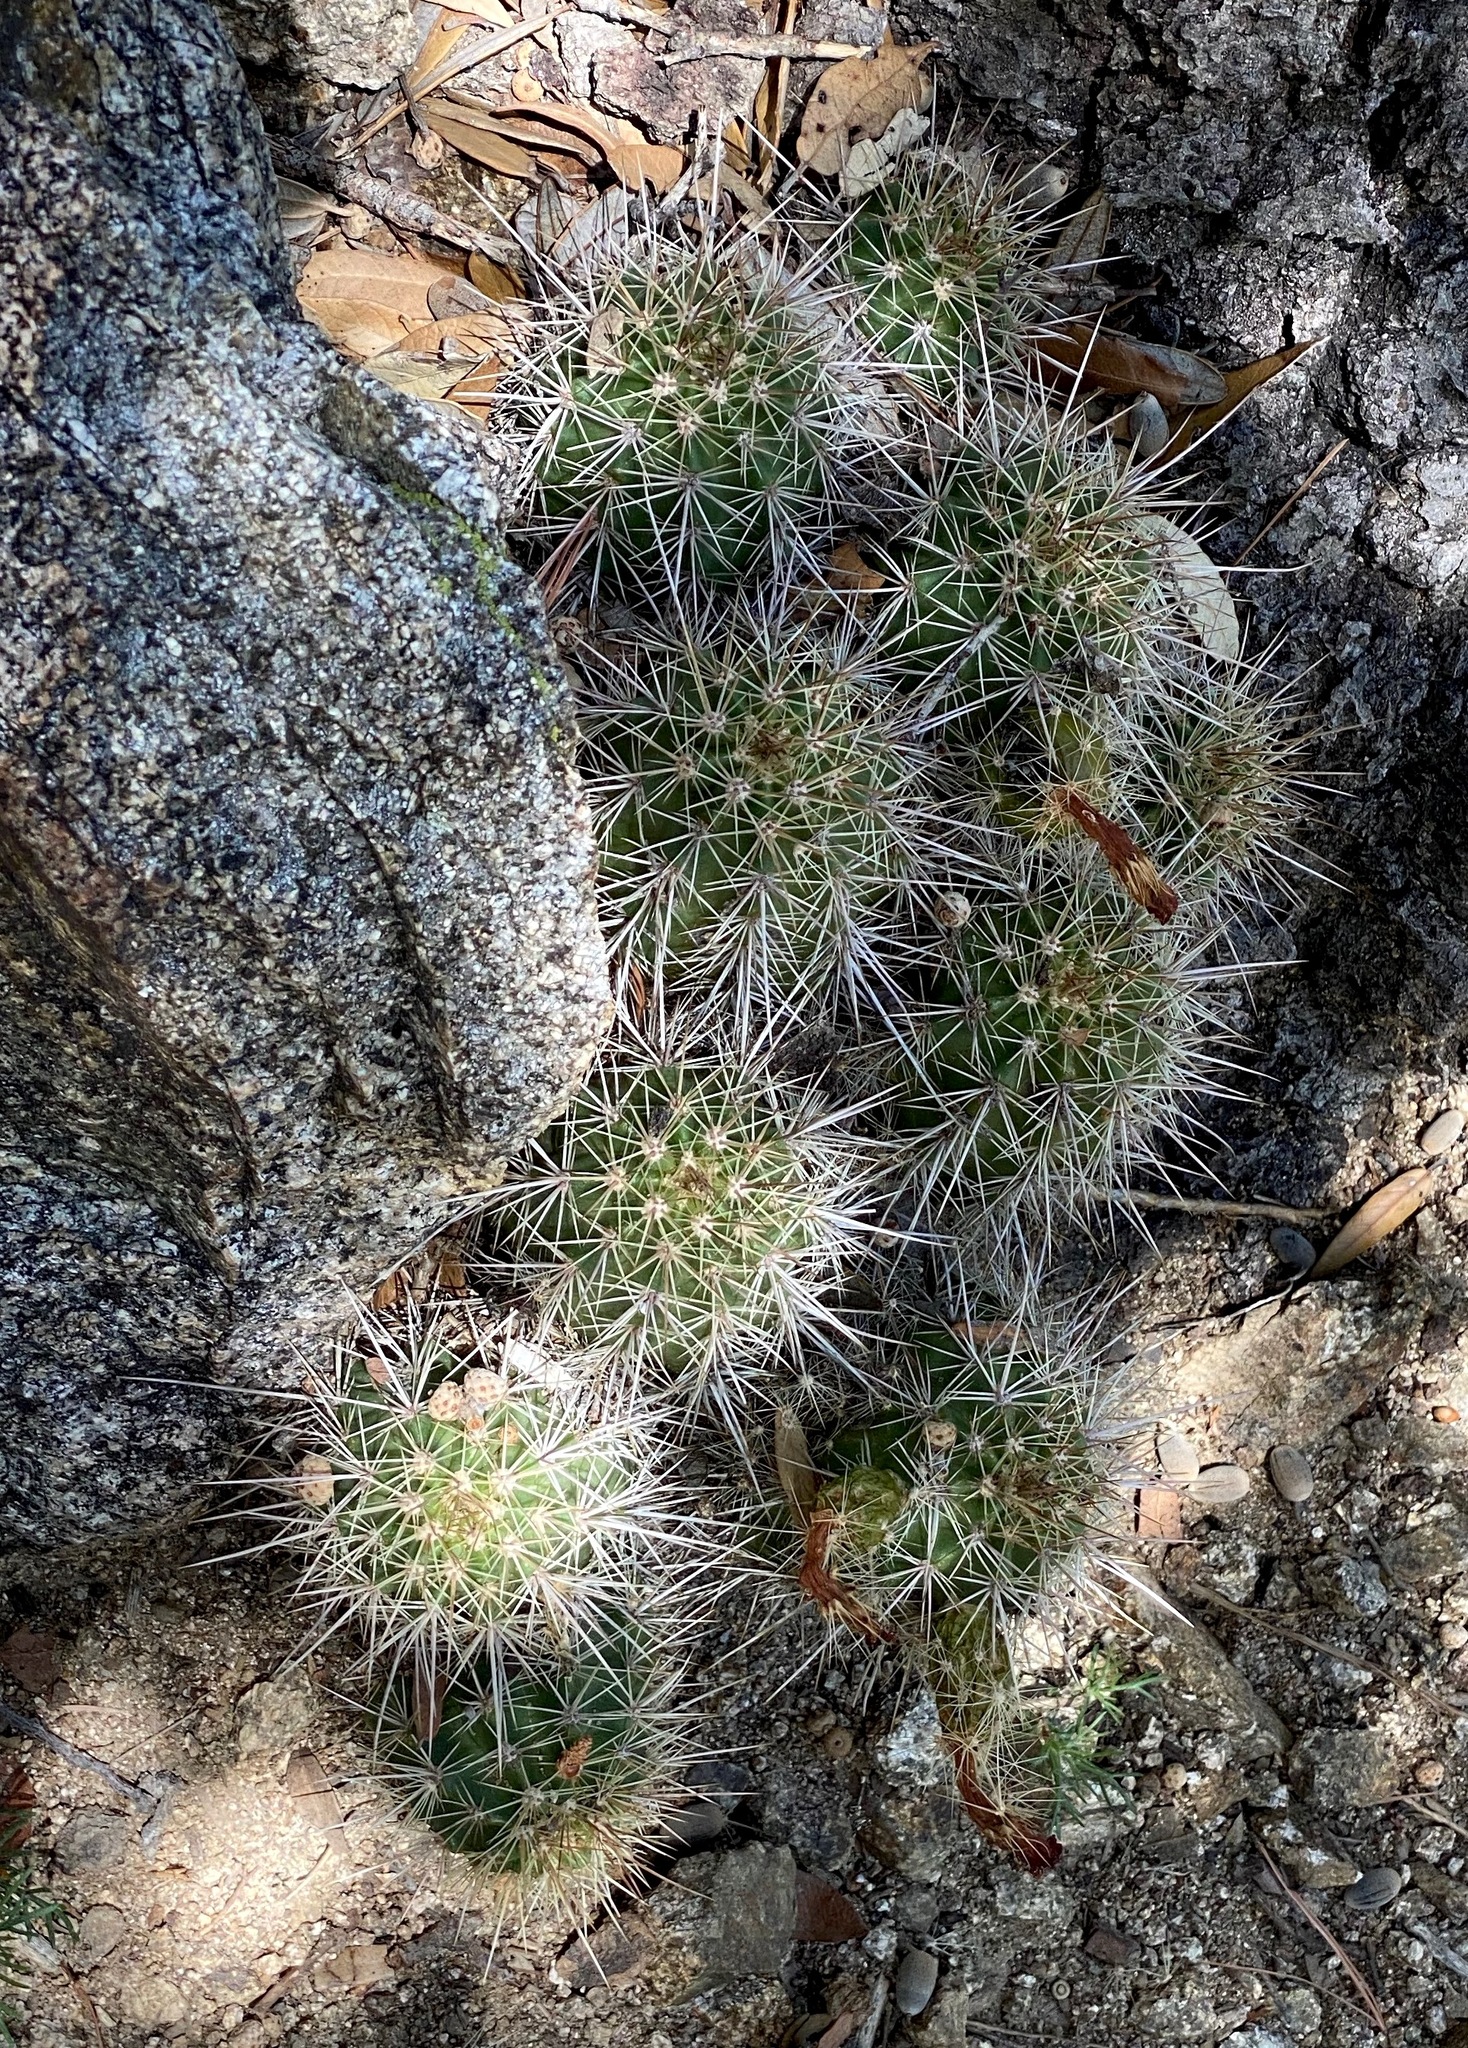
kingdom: Plantae
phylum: Tracheophyta
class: Magnoliopsida
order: Caryophyllales
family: Cactaceae
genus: Echinocereus
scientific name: Echinocereus coccineus
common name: Scarlet hedgehog cactus
